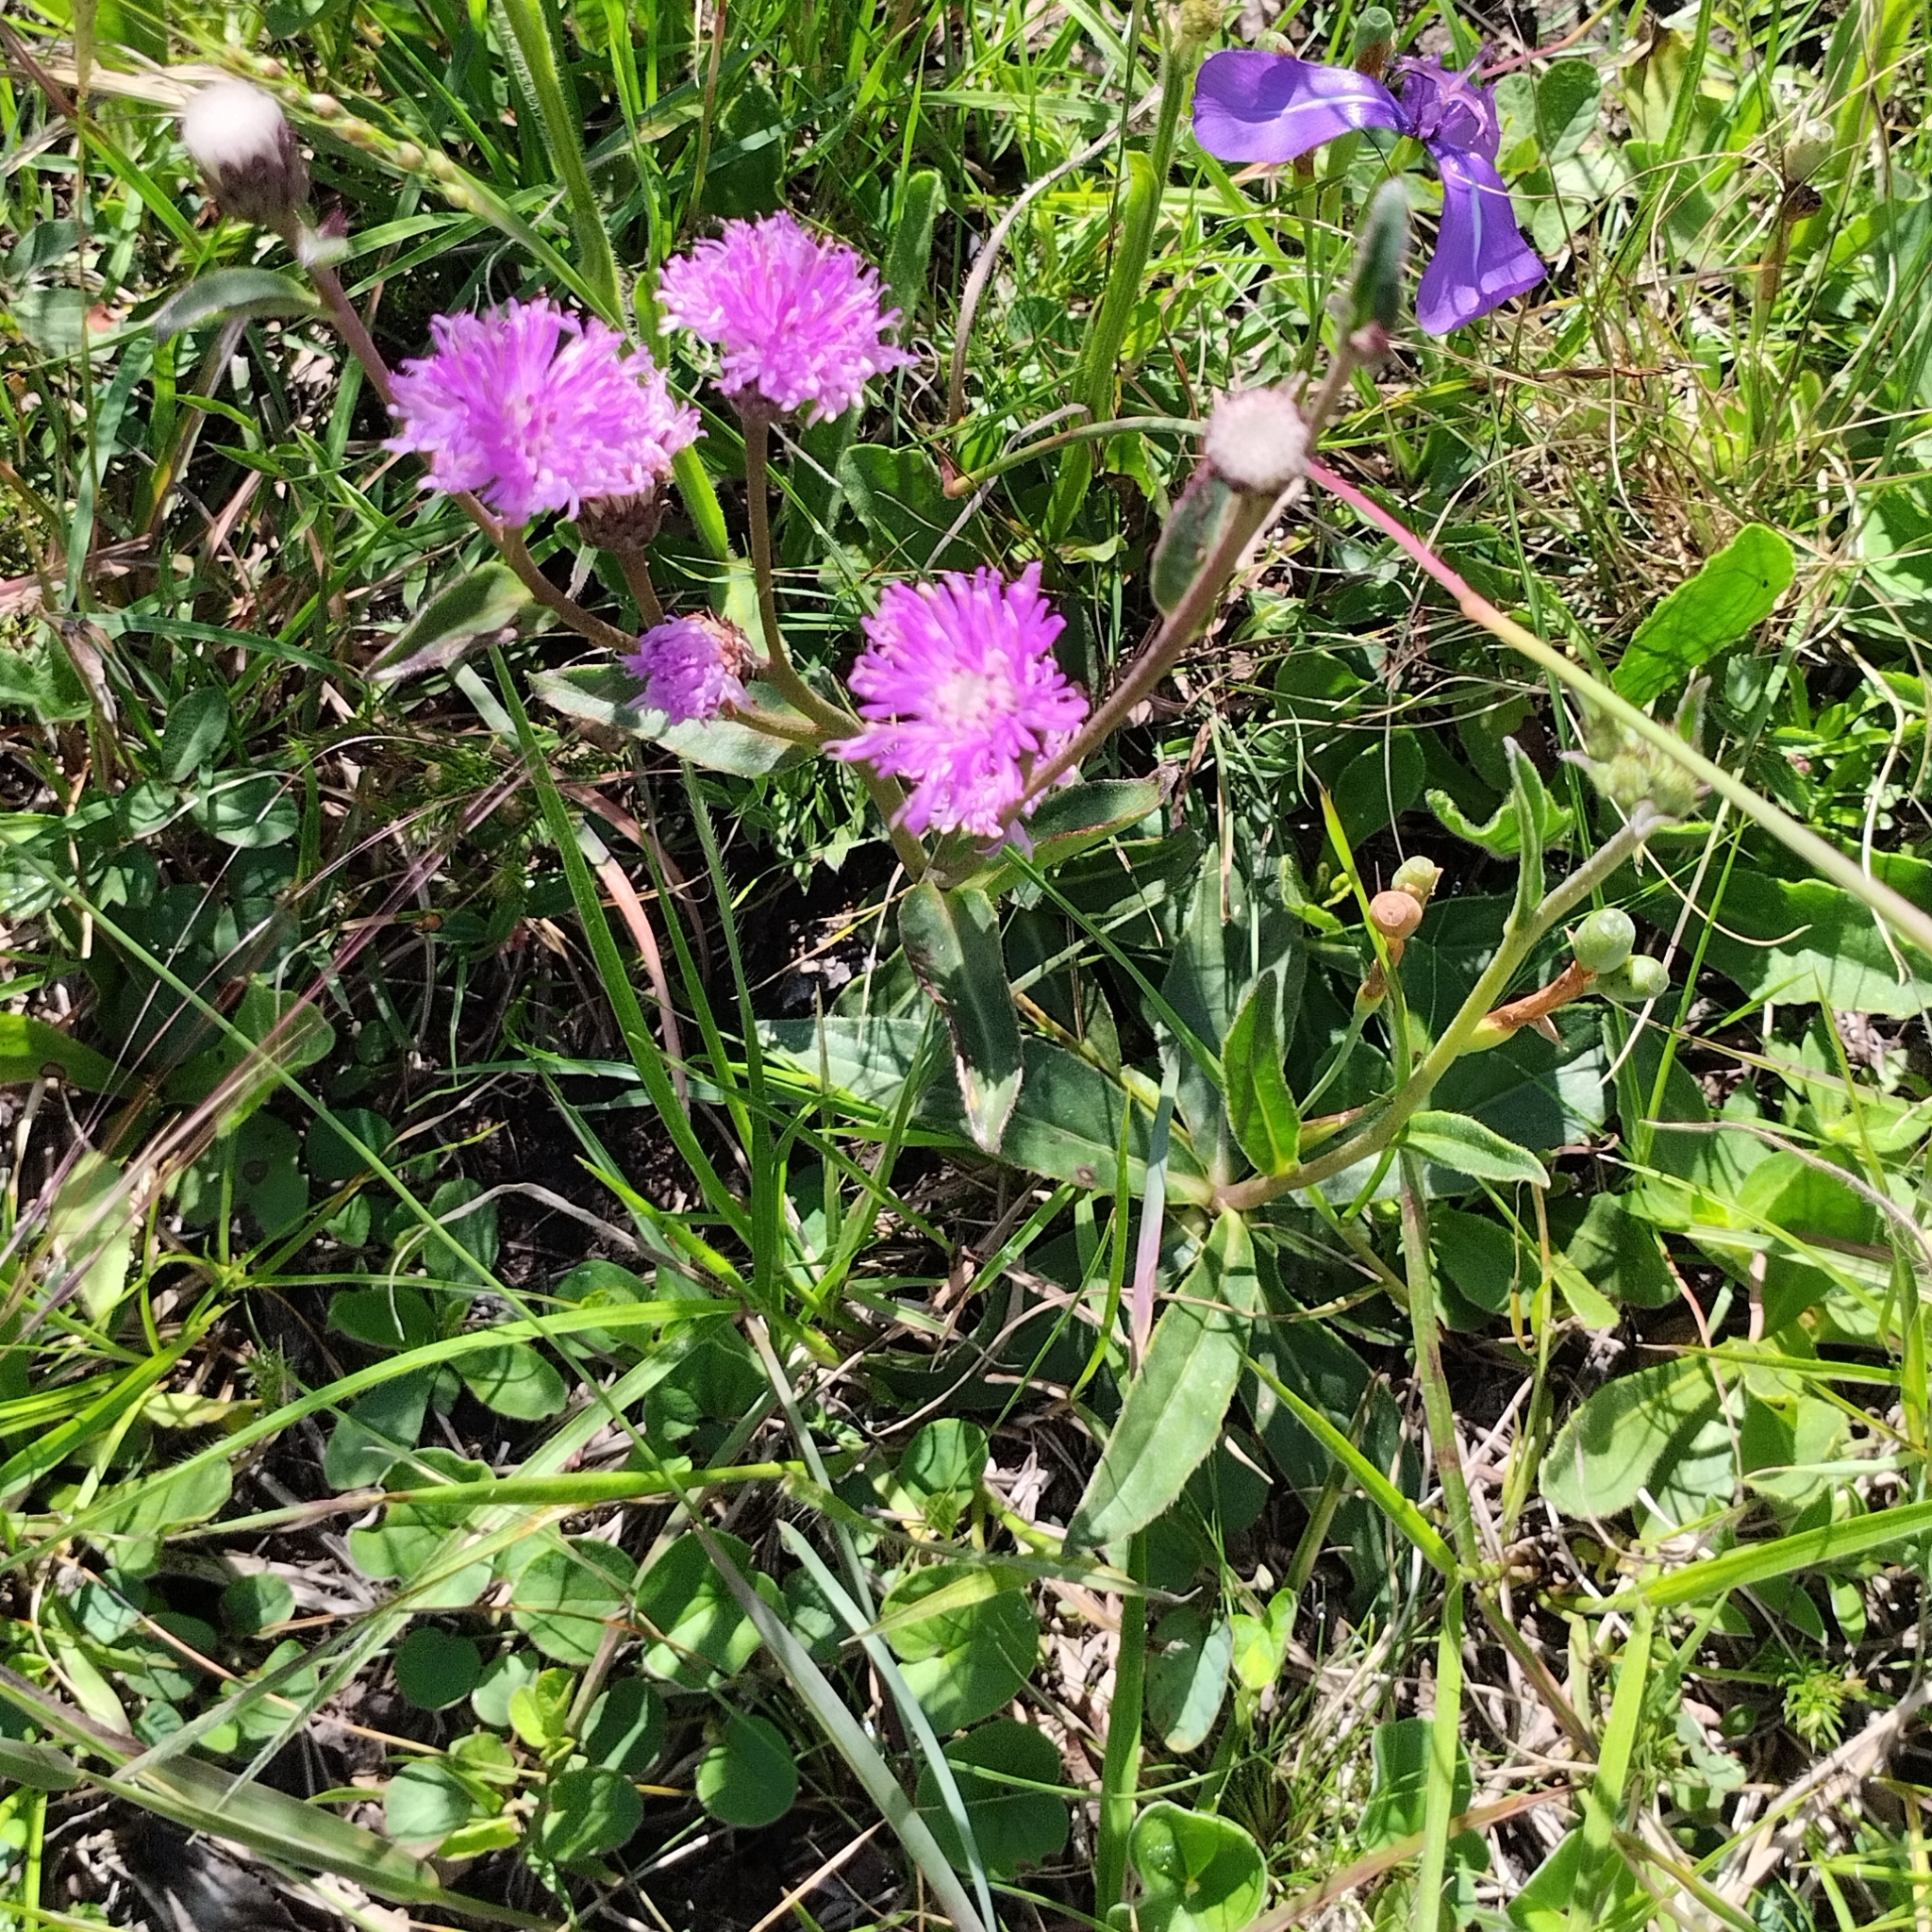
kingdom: Plantae
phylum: Tracheophyta
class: Magnoliopsida
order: Asterales
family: Asteraceae
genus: Chrysolaena
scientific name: Chrysolaena flexuosa
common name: Zig-zag vernonia
